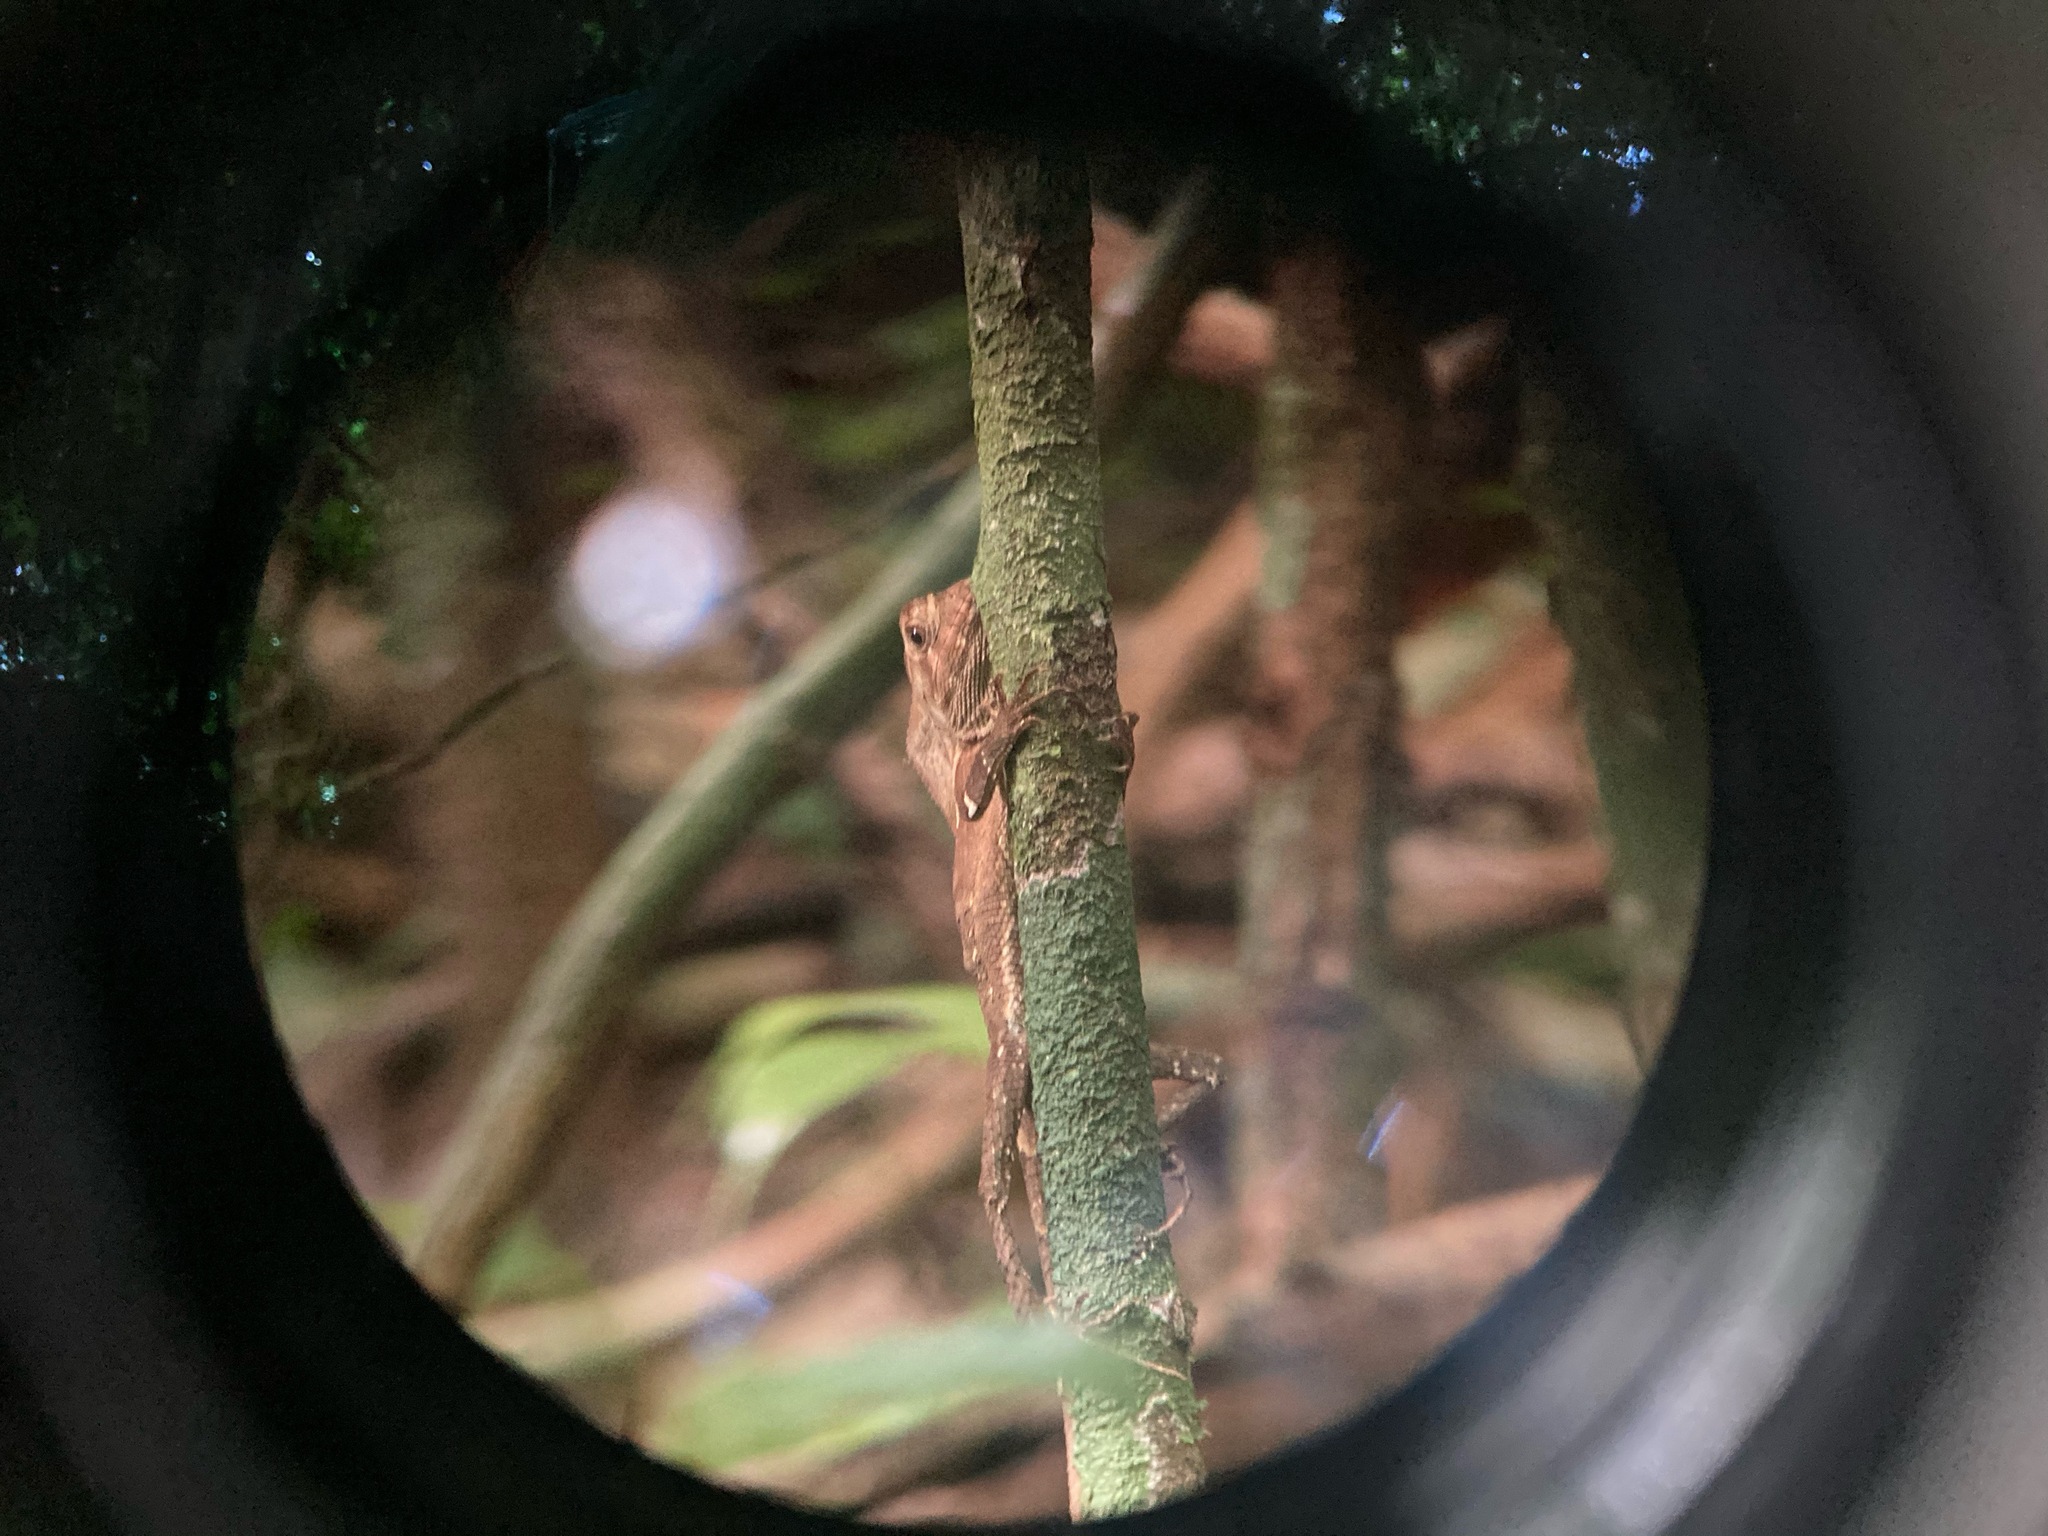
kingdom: Animalia
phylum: Chordata
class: Squamata
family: Corytophanidae
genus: Corytophanes
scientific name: Corytophanes cristatus
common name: Smooth helmeted iguana
